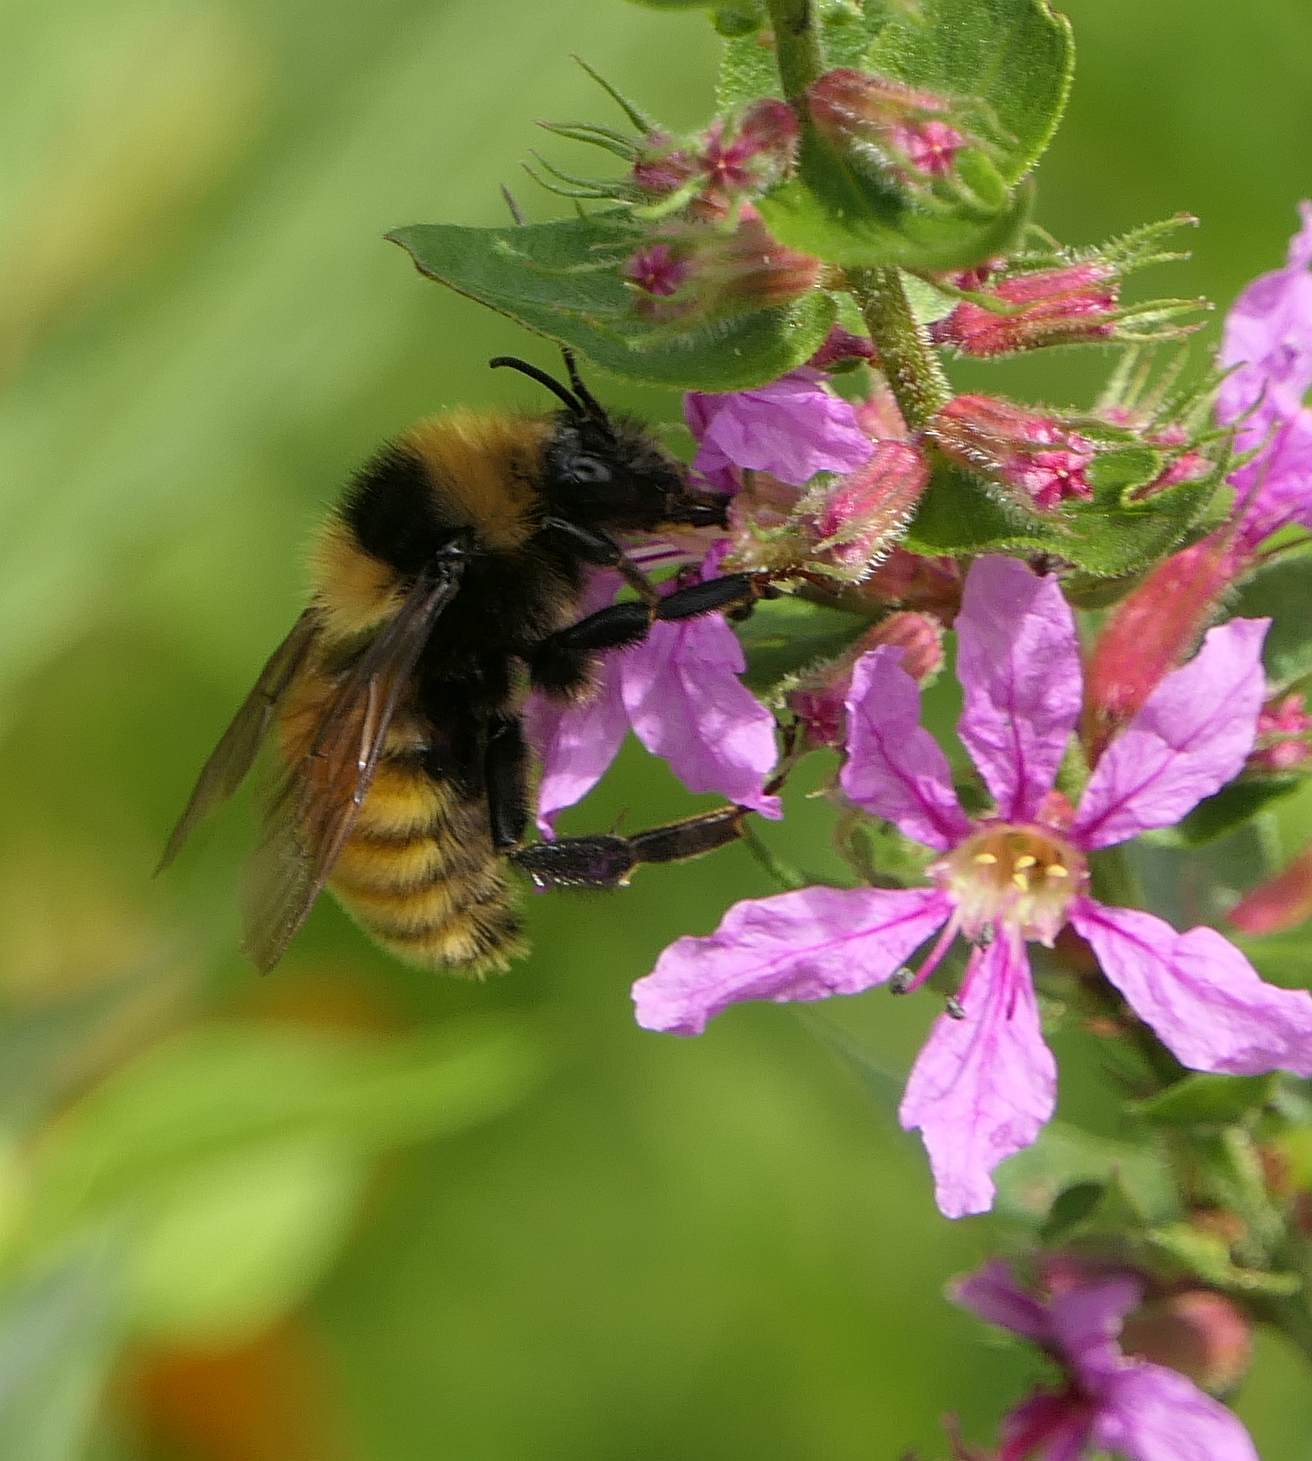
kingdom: Animalia
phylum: Arthropoda
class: Insecta
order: Hymenoptera
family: Apidae
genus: Bombus
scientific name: Bombus borealis
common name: Northern amber bumble bee
